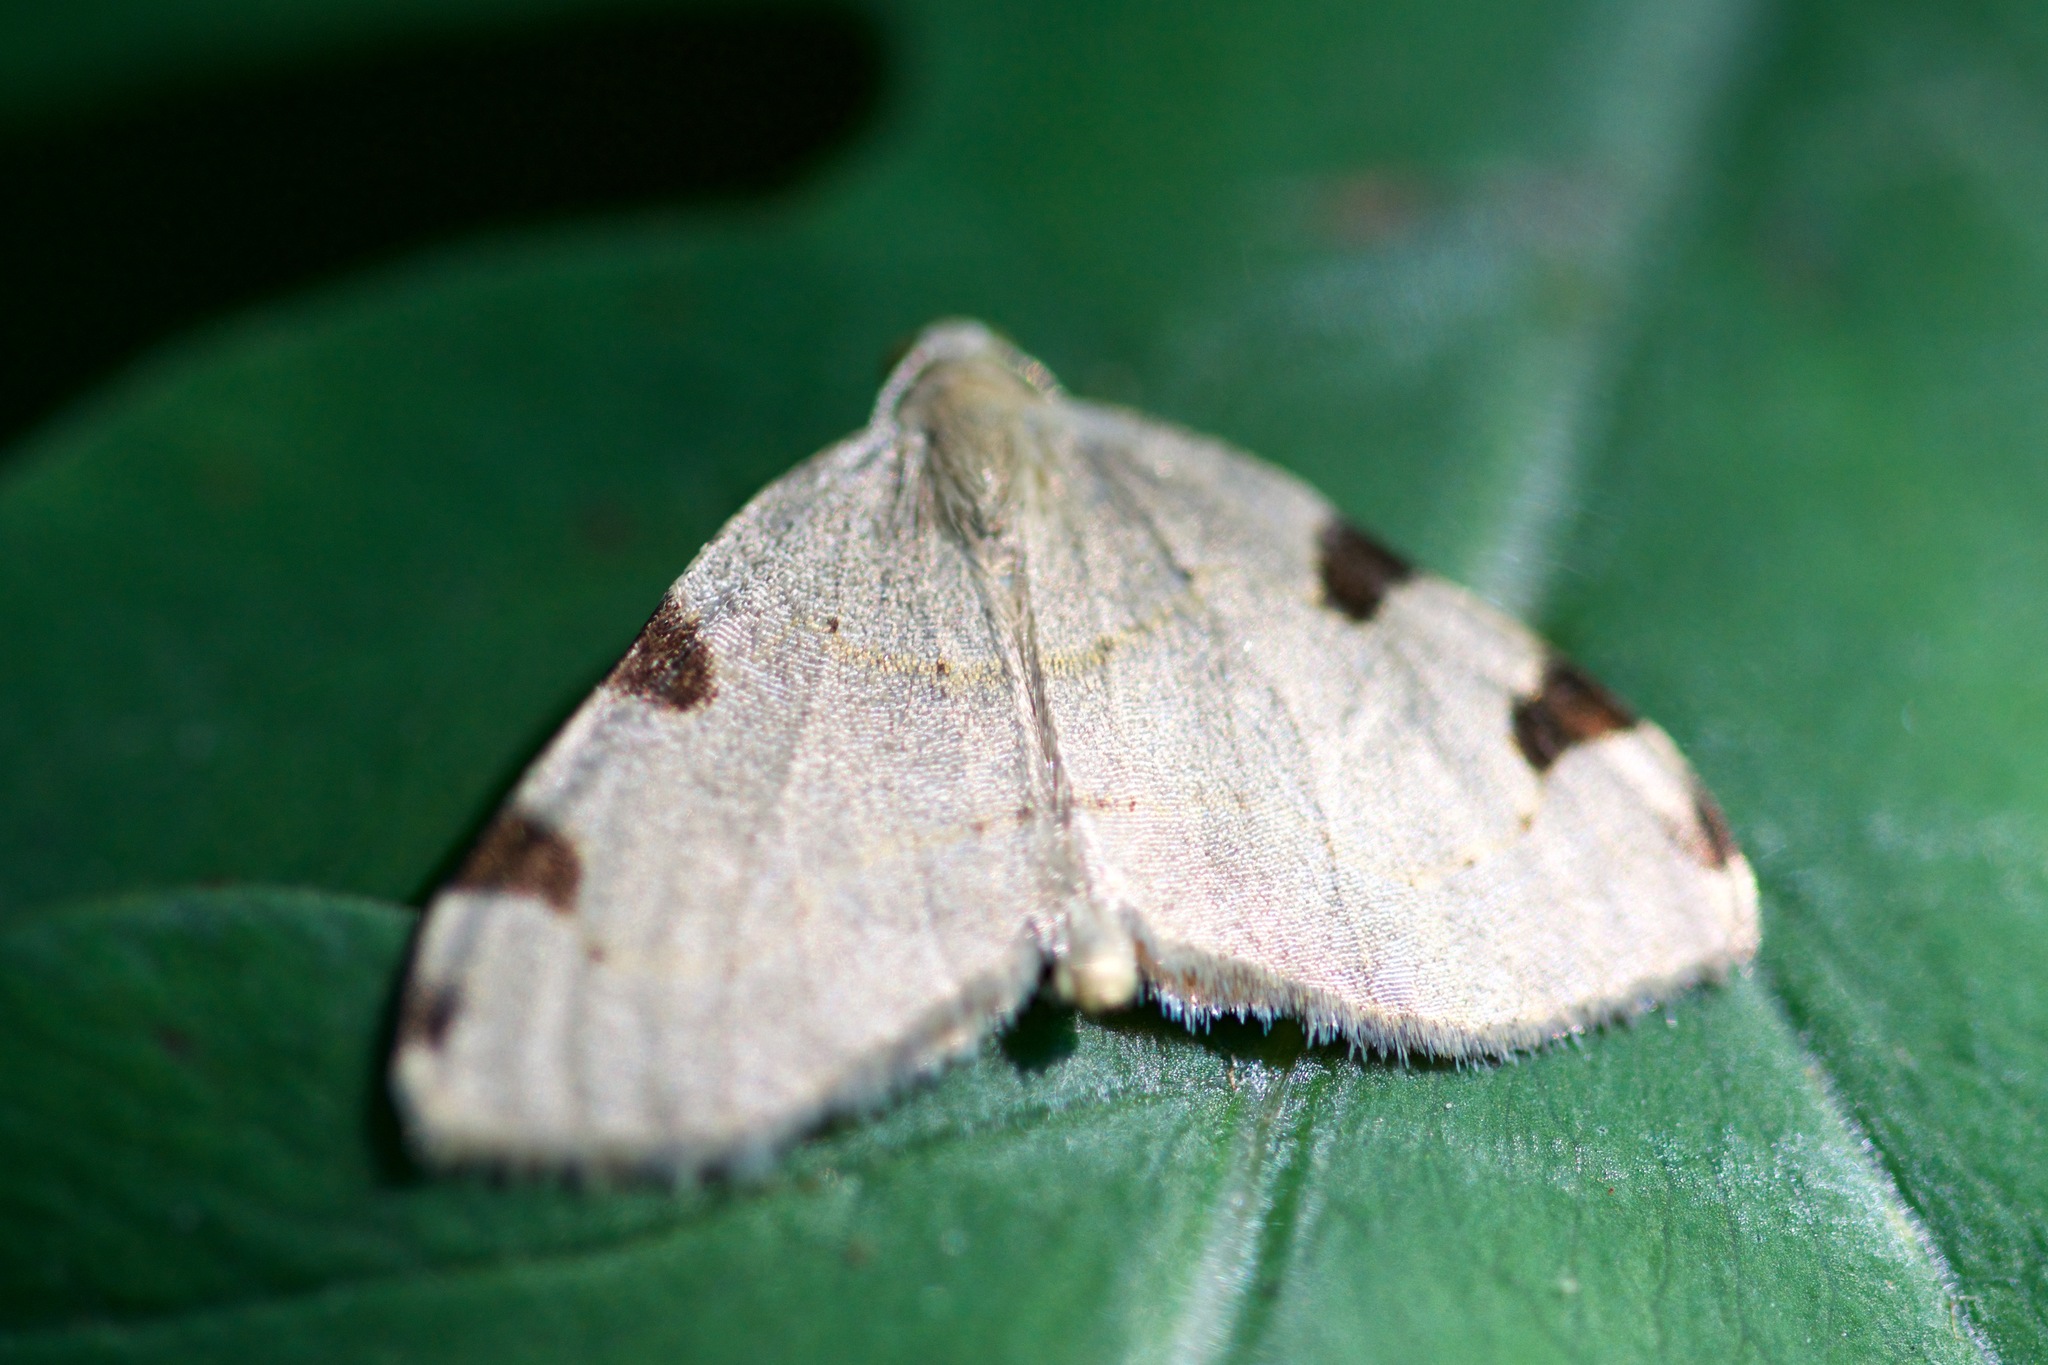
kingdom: Animalia
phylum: Arthropoda
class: Insecta
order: Lepidoptera
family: Geometridae
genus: Heterophleps
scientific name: Heterophleps triguttaria
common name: Three-spotted fillip
